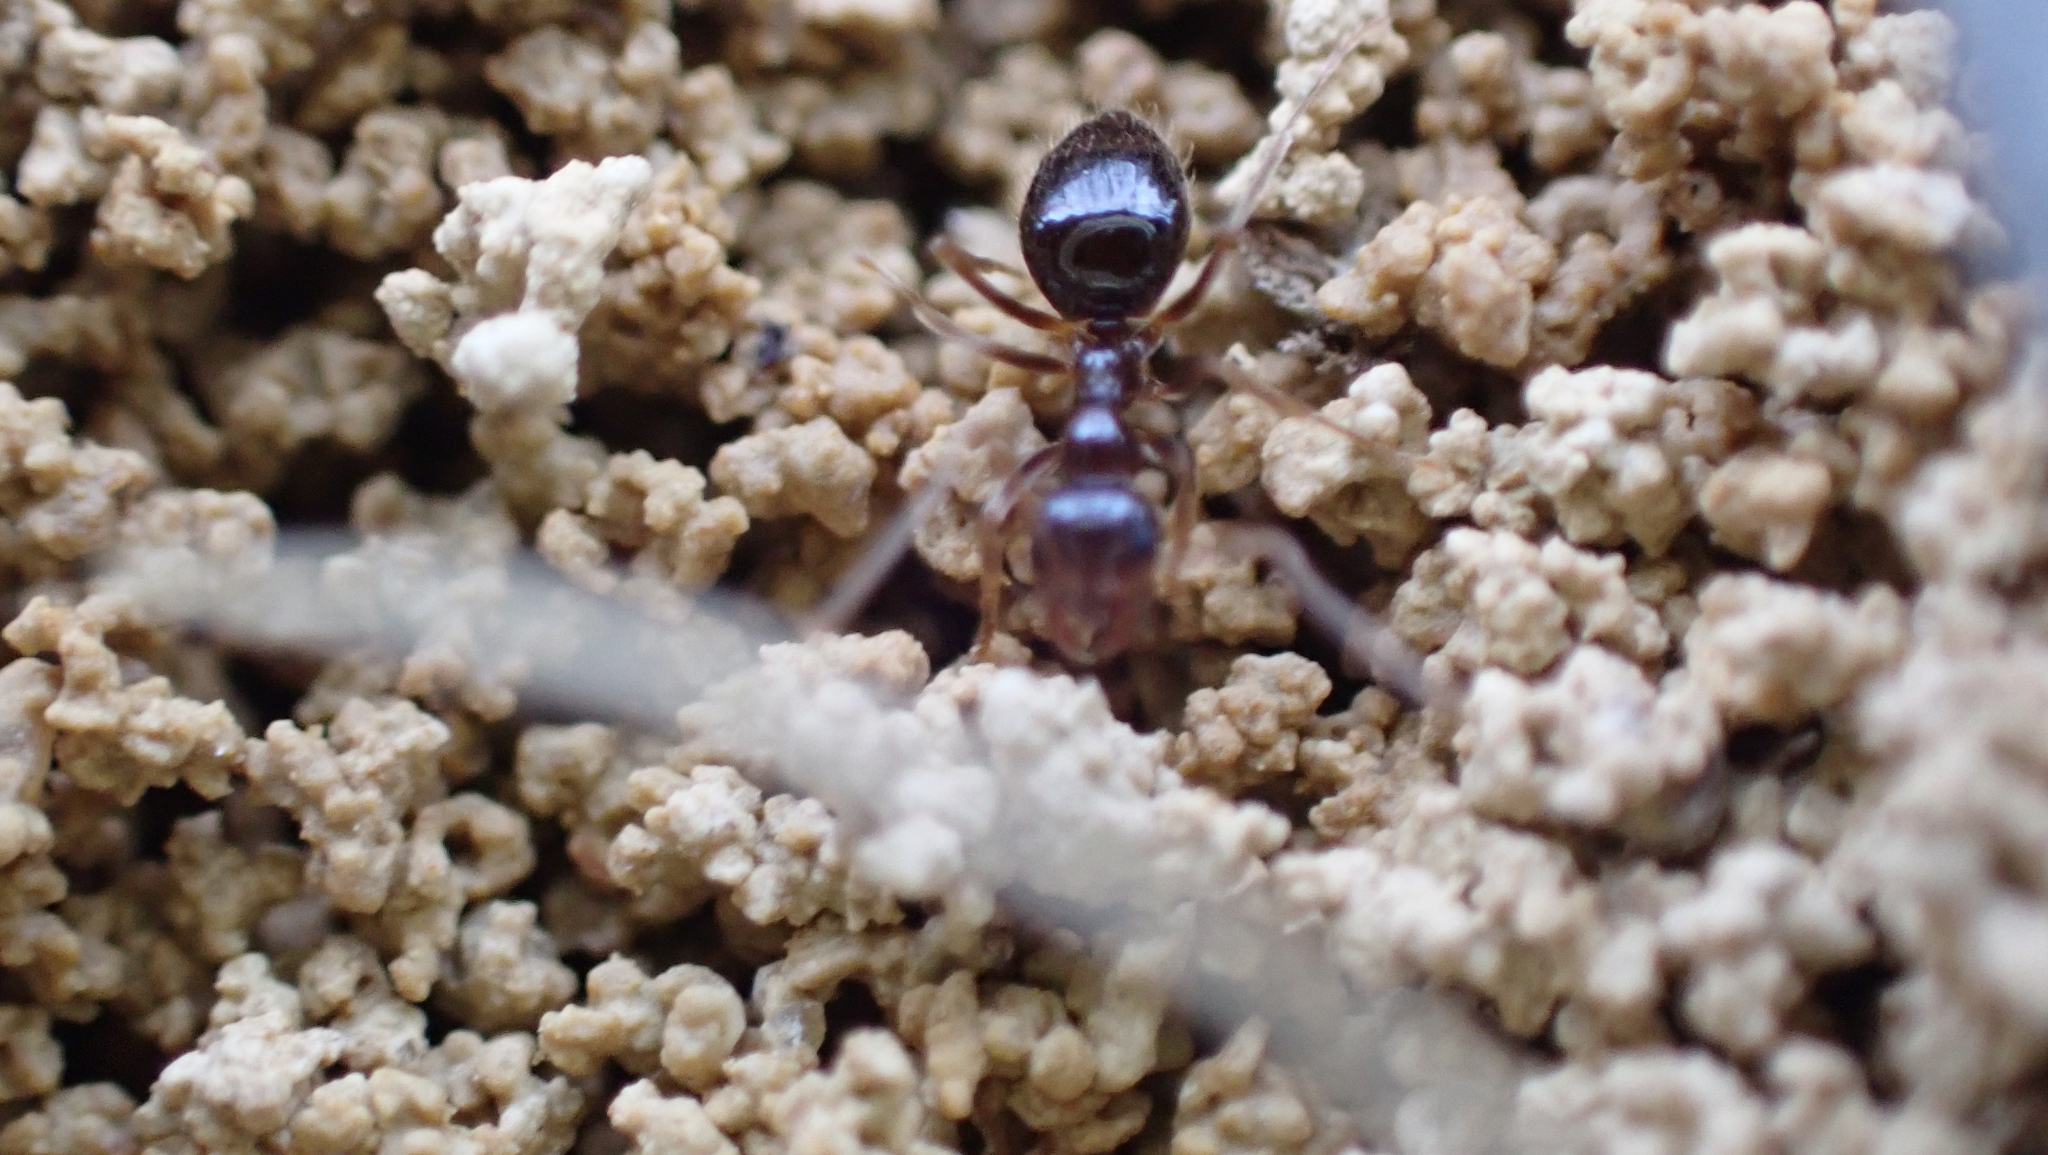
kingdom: Animalia
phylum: Arthropoda
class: Insecta
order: Hymenoptera
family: Formicidae
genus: Prenolepis
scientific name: Prenolepis imparis
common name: Small honey ant
